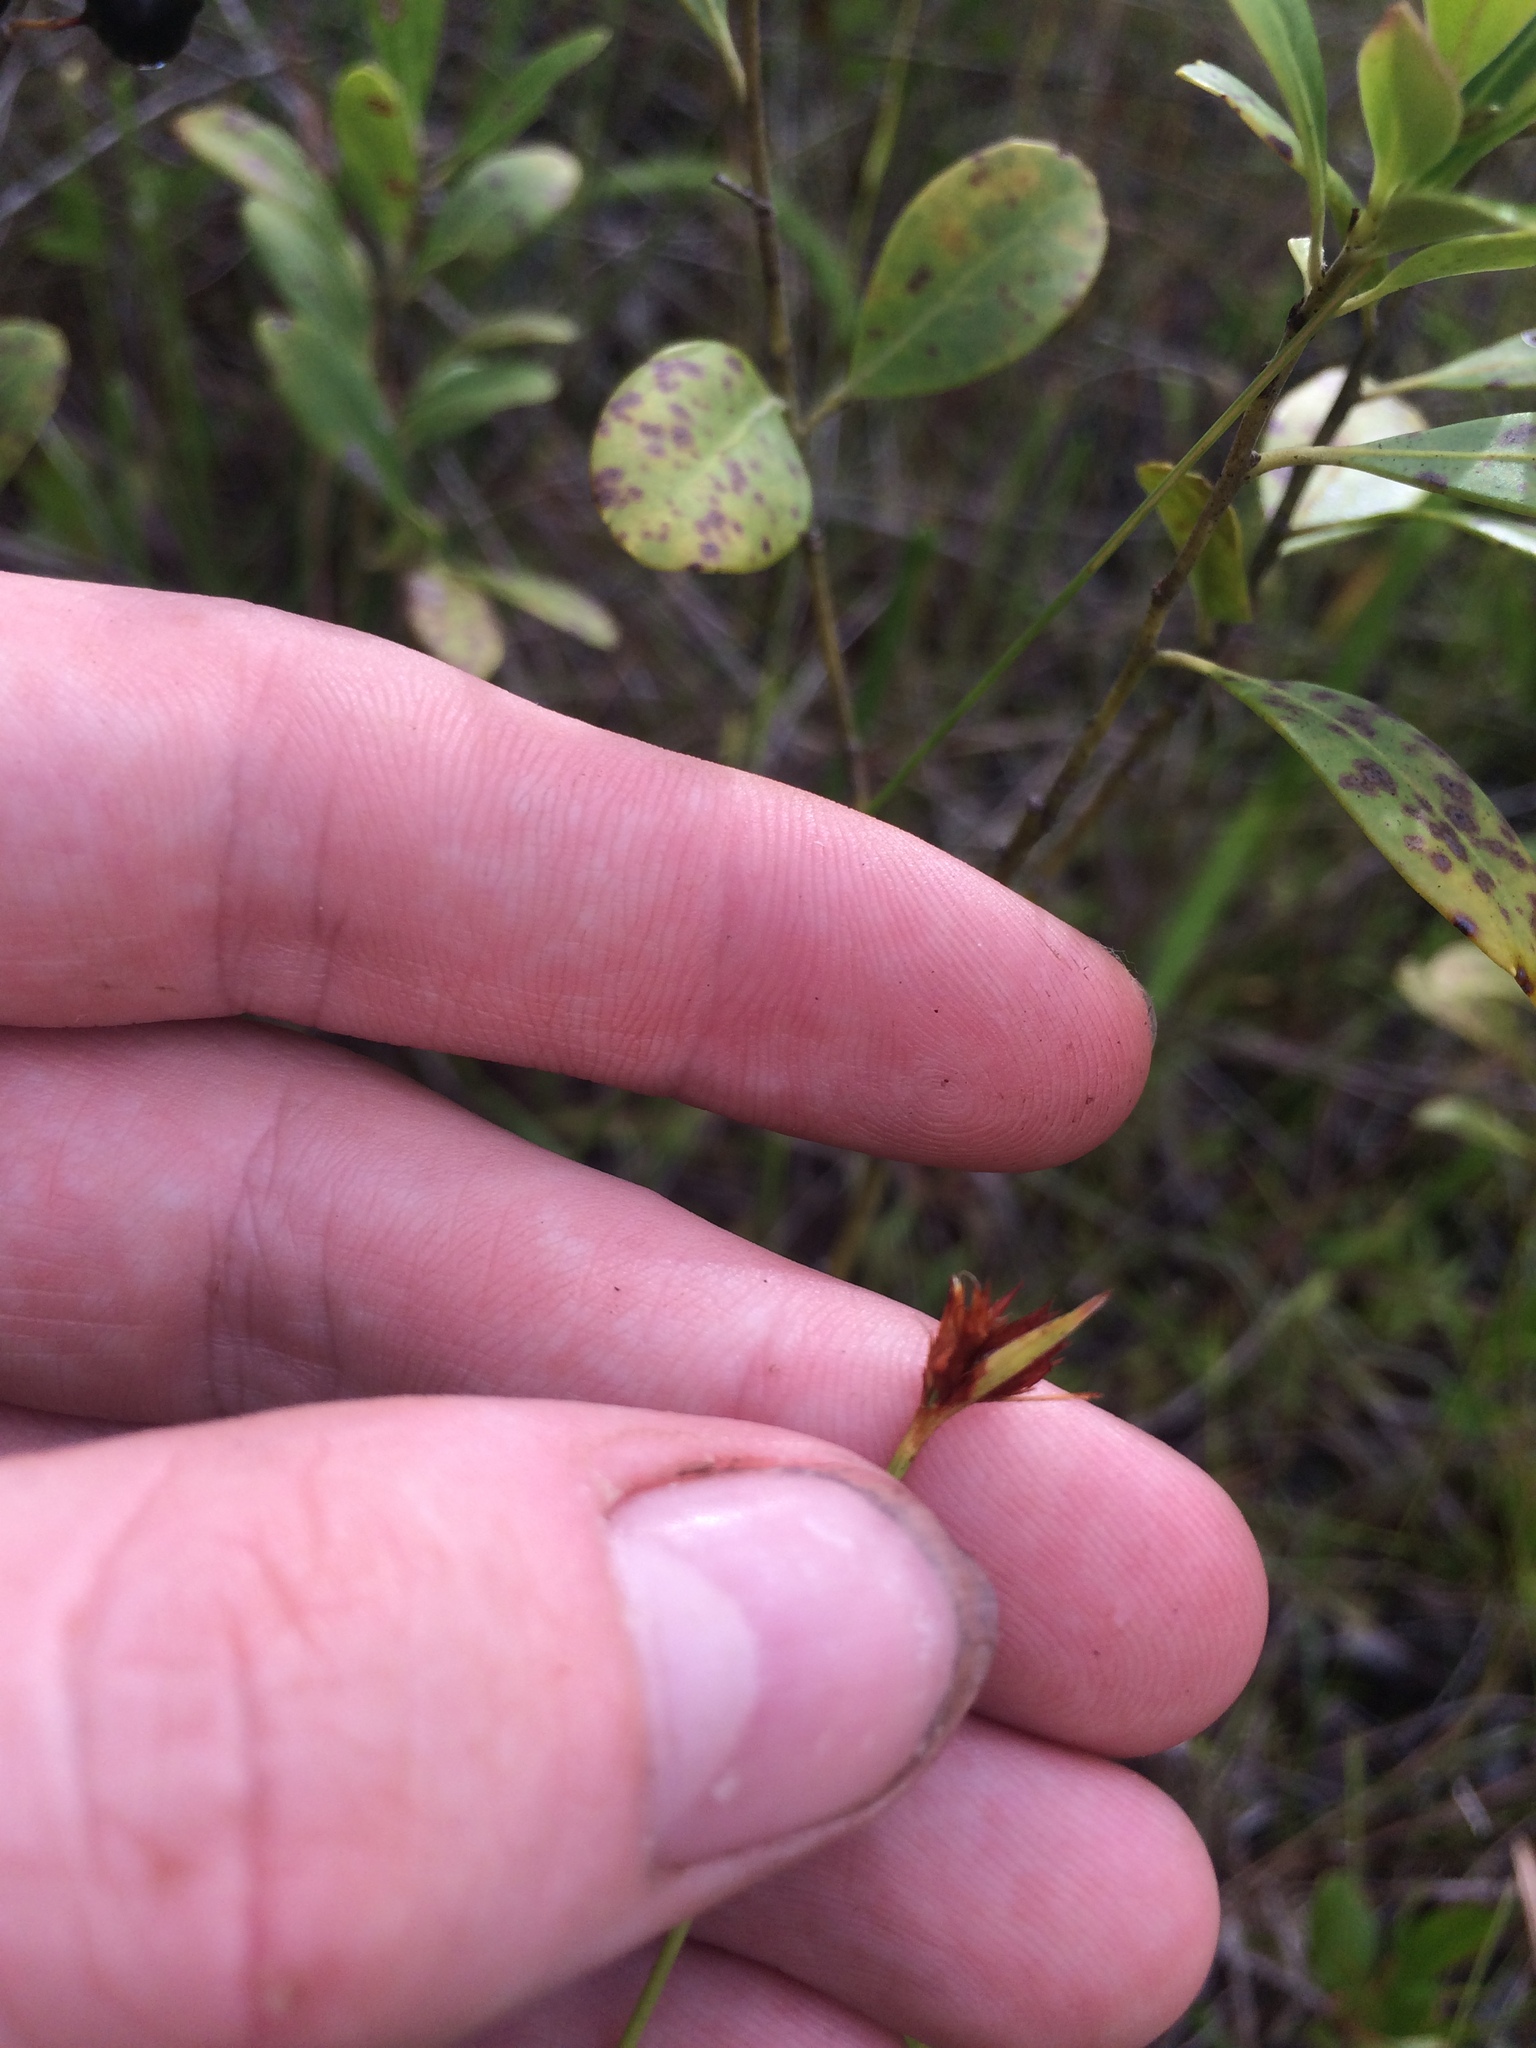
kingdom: Plantae
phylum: Tracheophyta
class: Liliopsida
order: Poales
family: Cyperaceae
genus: Rhynchospora
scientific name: Rhynchospora ciliaris
